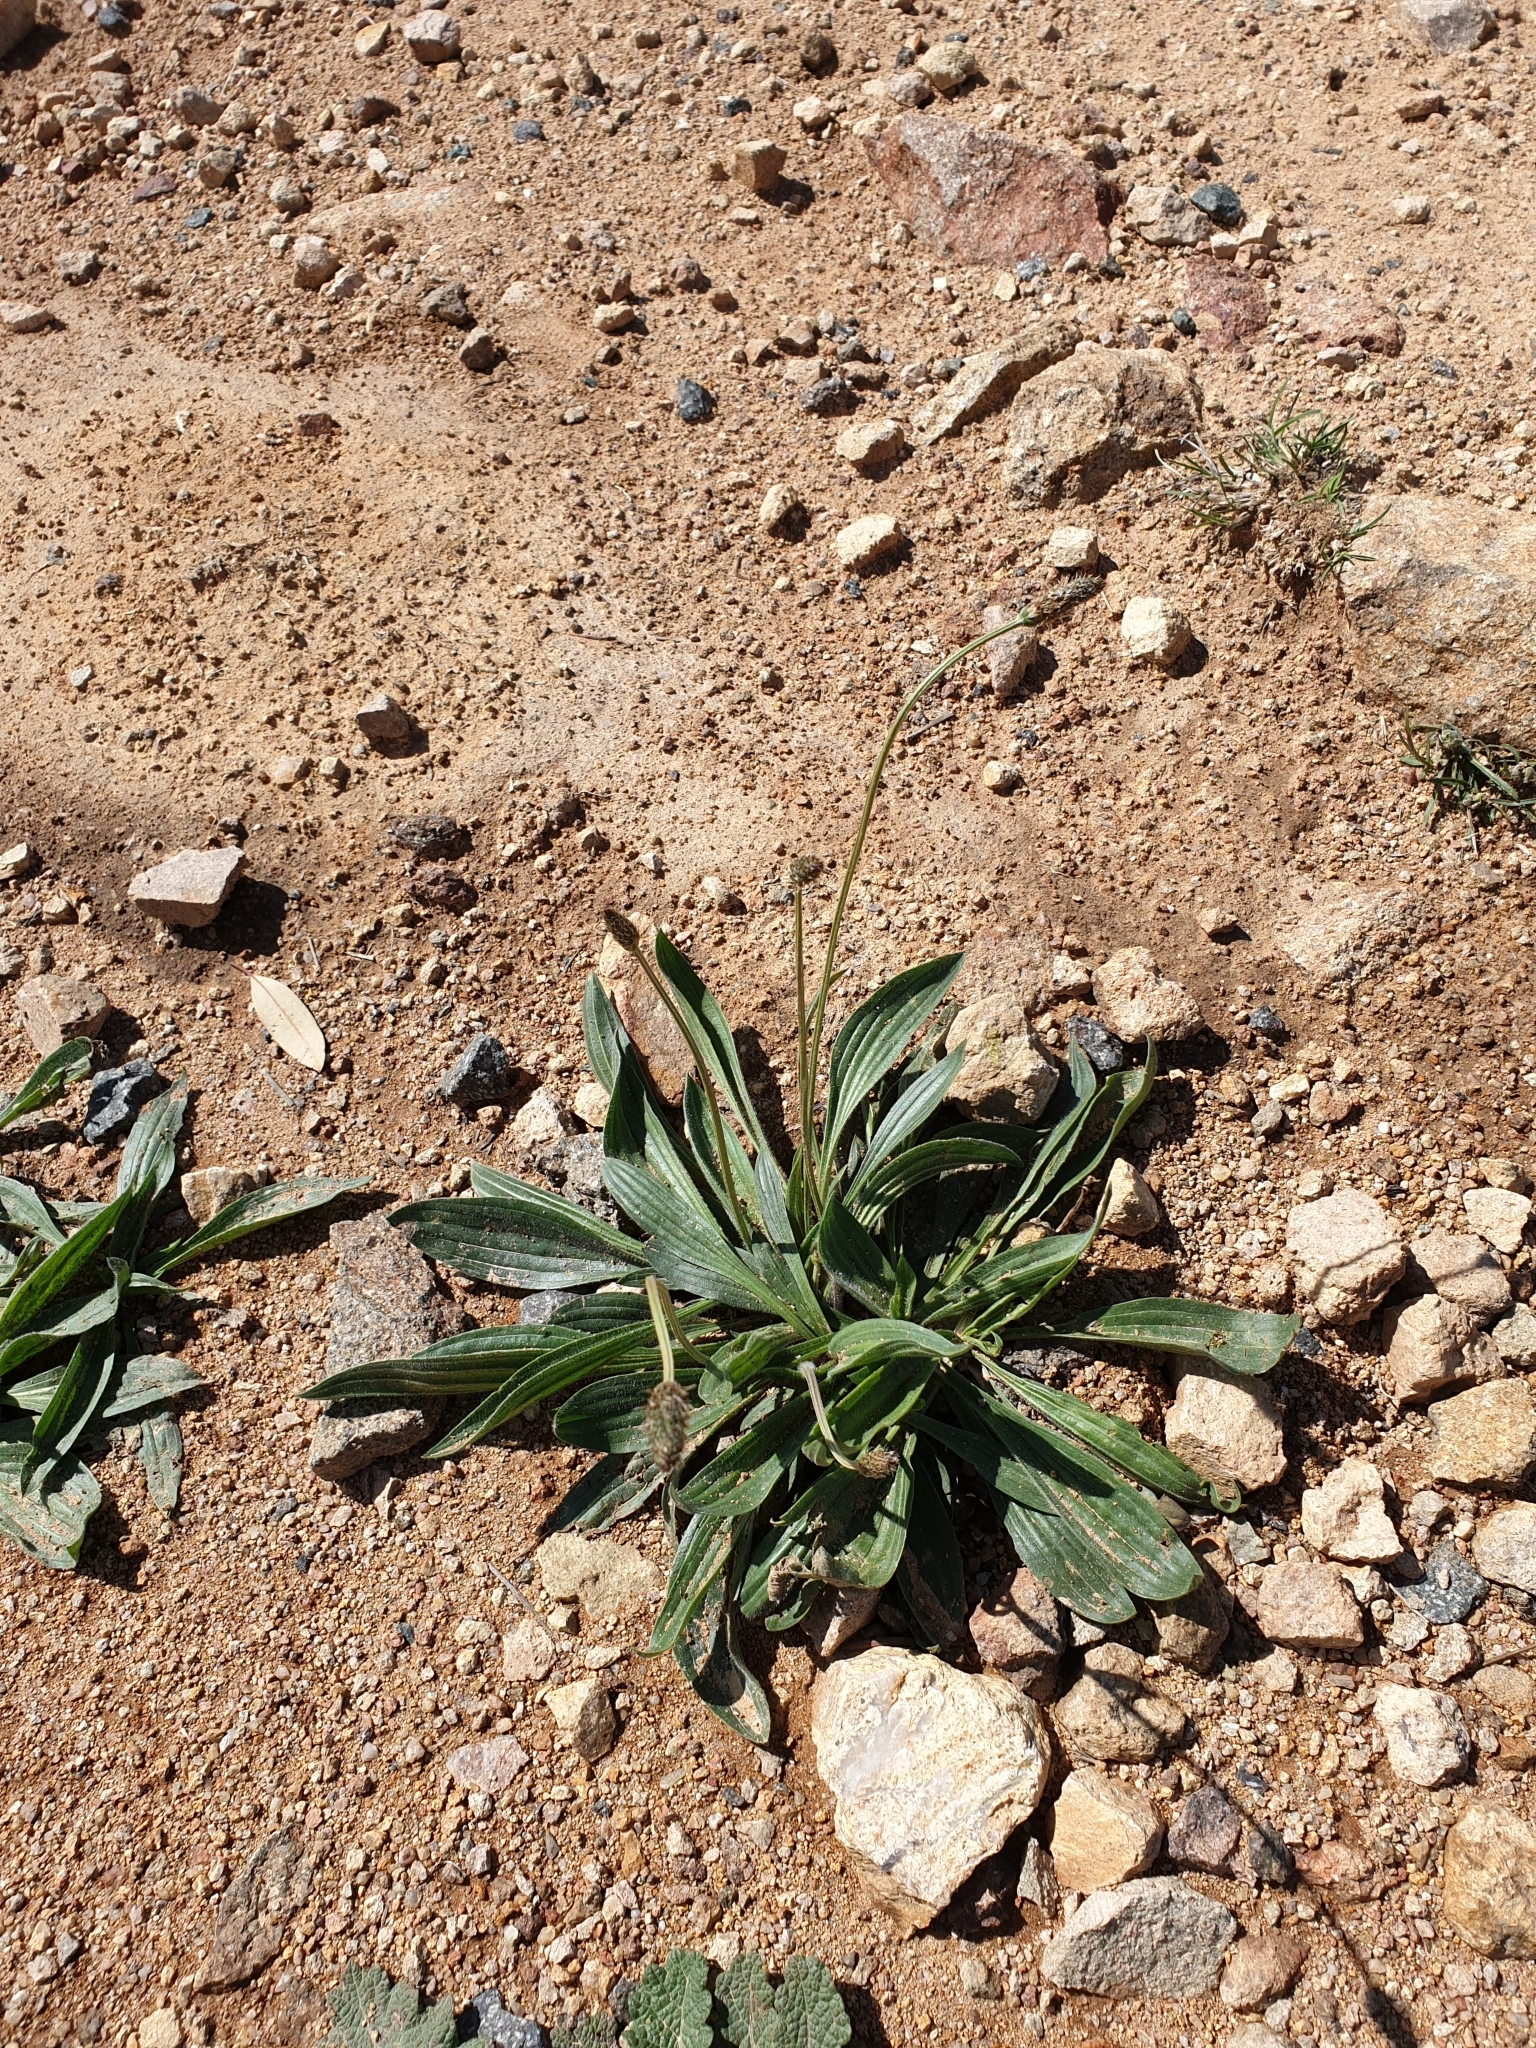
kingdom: Plantae
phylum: Tracheophyta
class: Magnoliopsida
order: Lamiales
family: Plantaginaceae
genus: Plantago
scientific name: Plantago lanceolata
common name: Ribwort plantain
